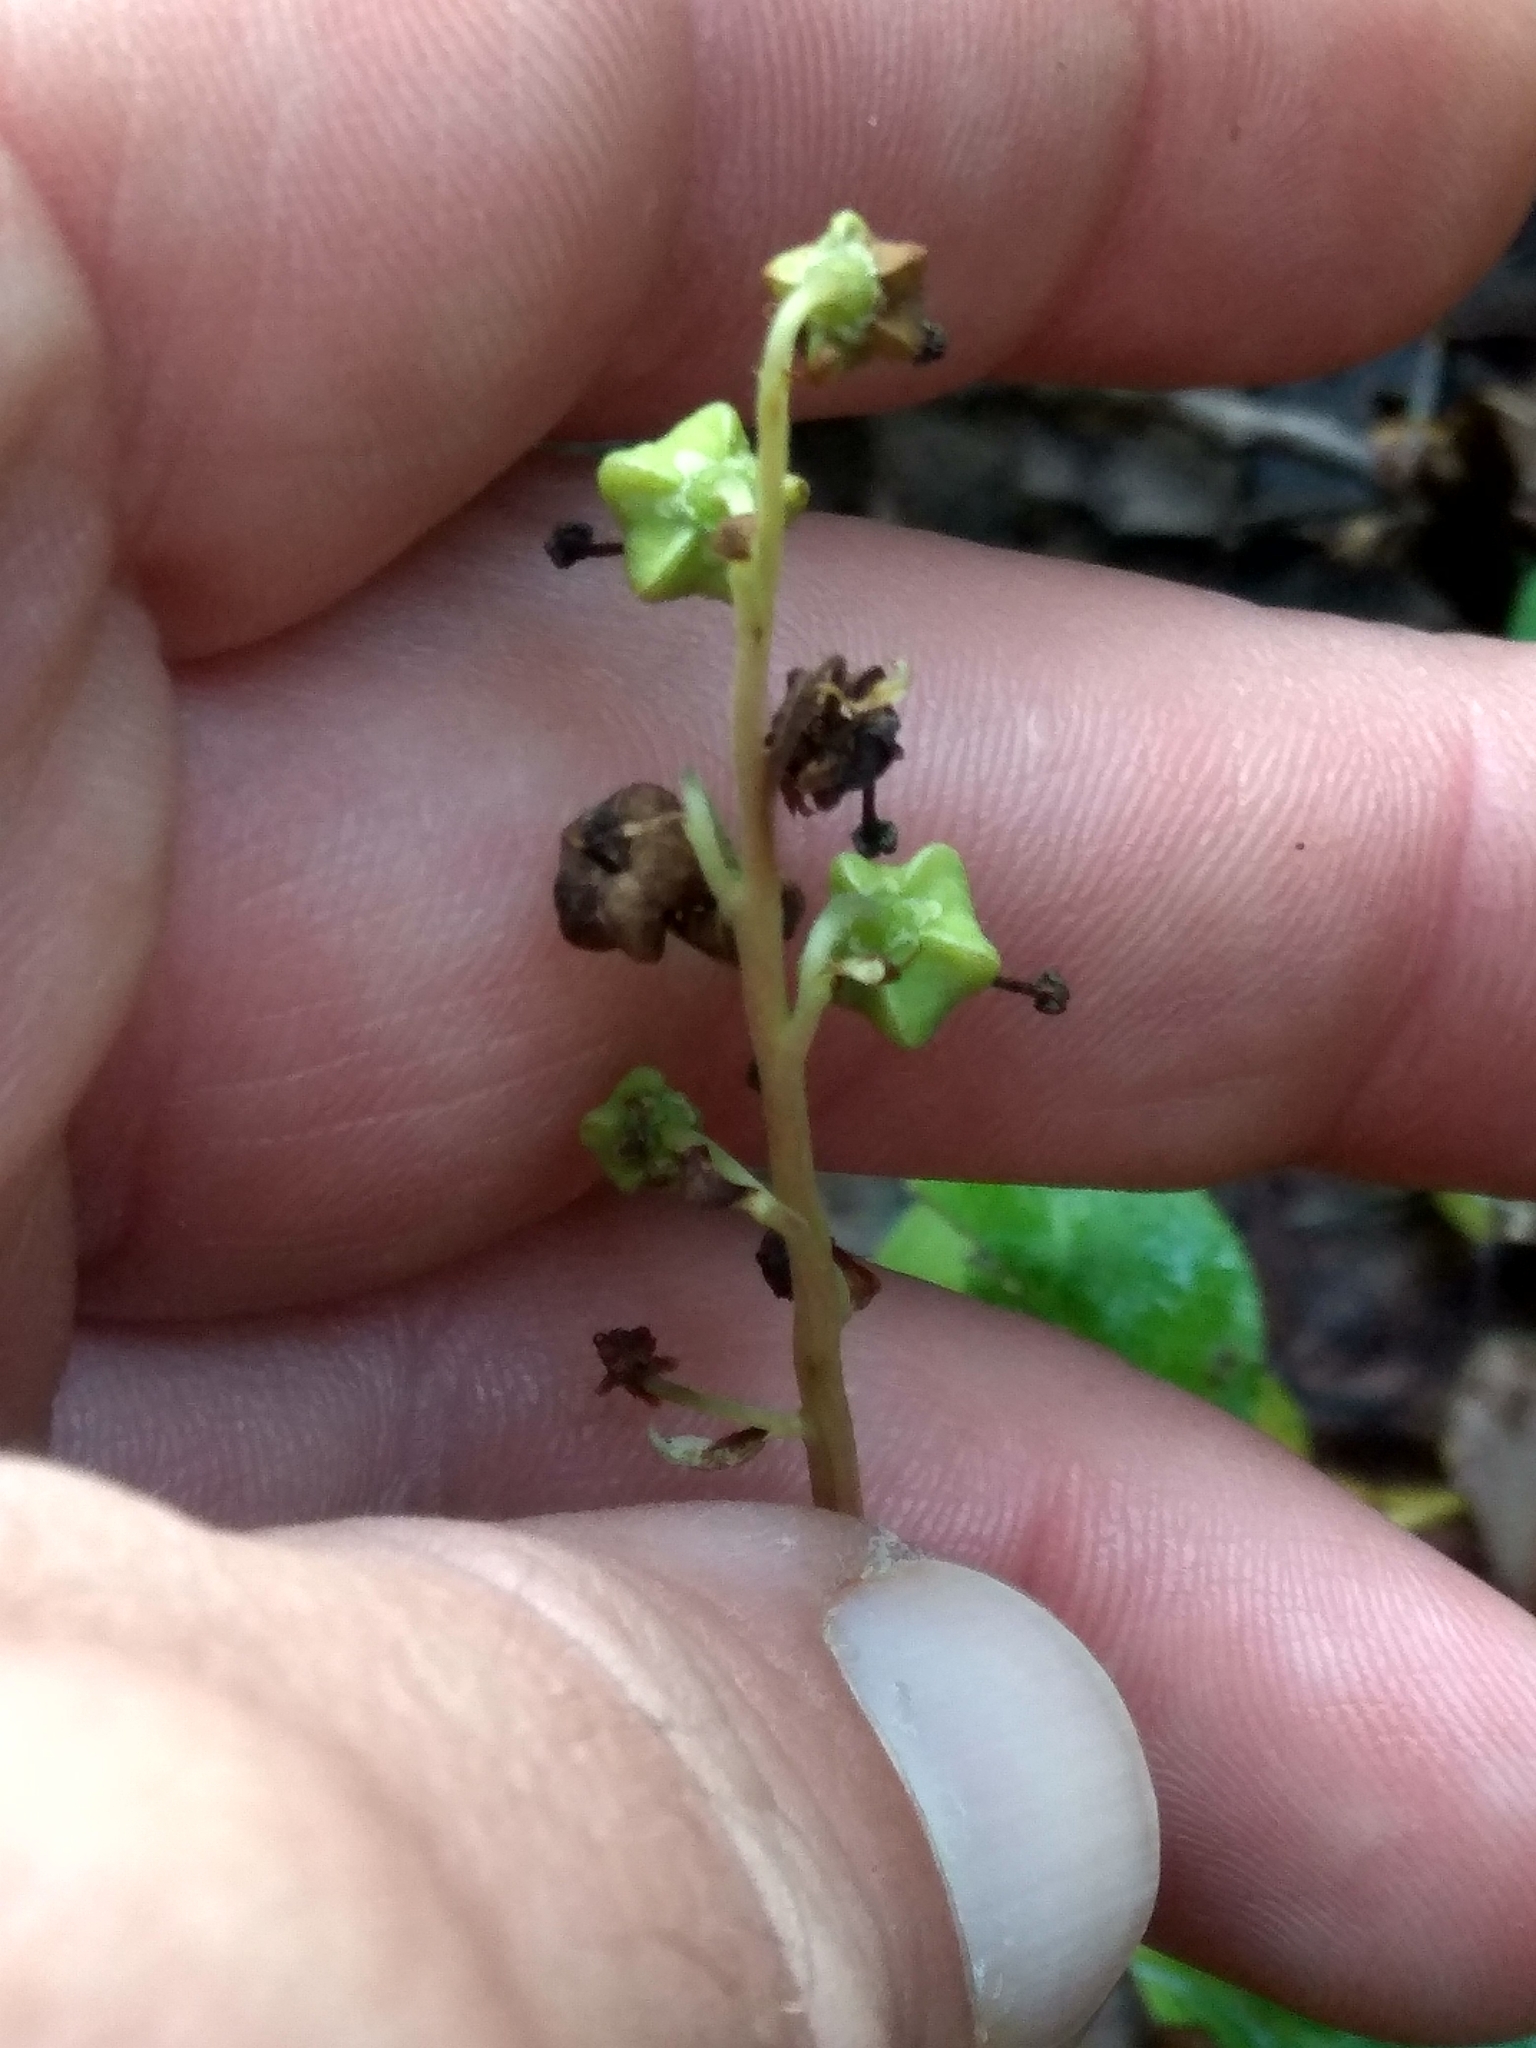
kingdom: Plantae
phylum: Tracheophyta
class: Magnoliopsida
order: Ericales
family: Ericaceae
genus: Orthilia
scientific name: Orthilia secunda
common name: One-sided orthilia
